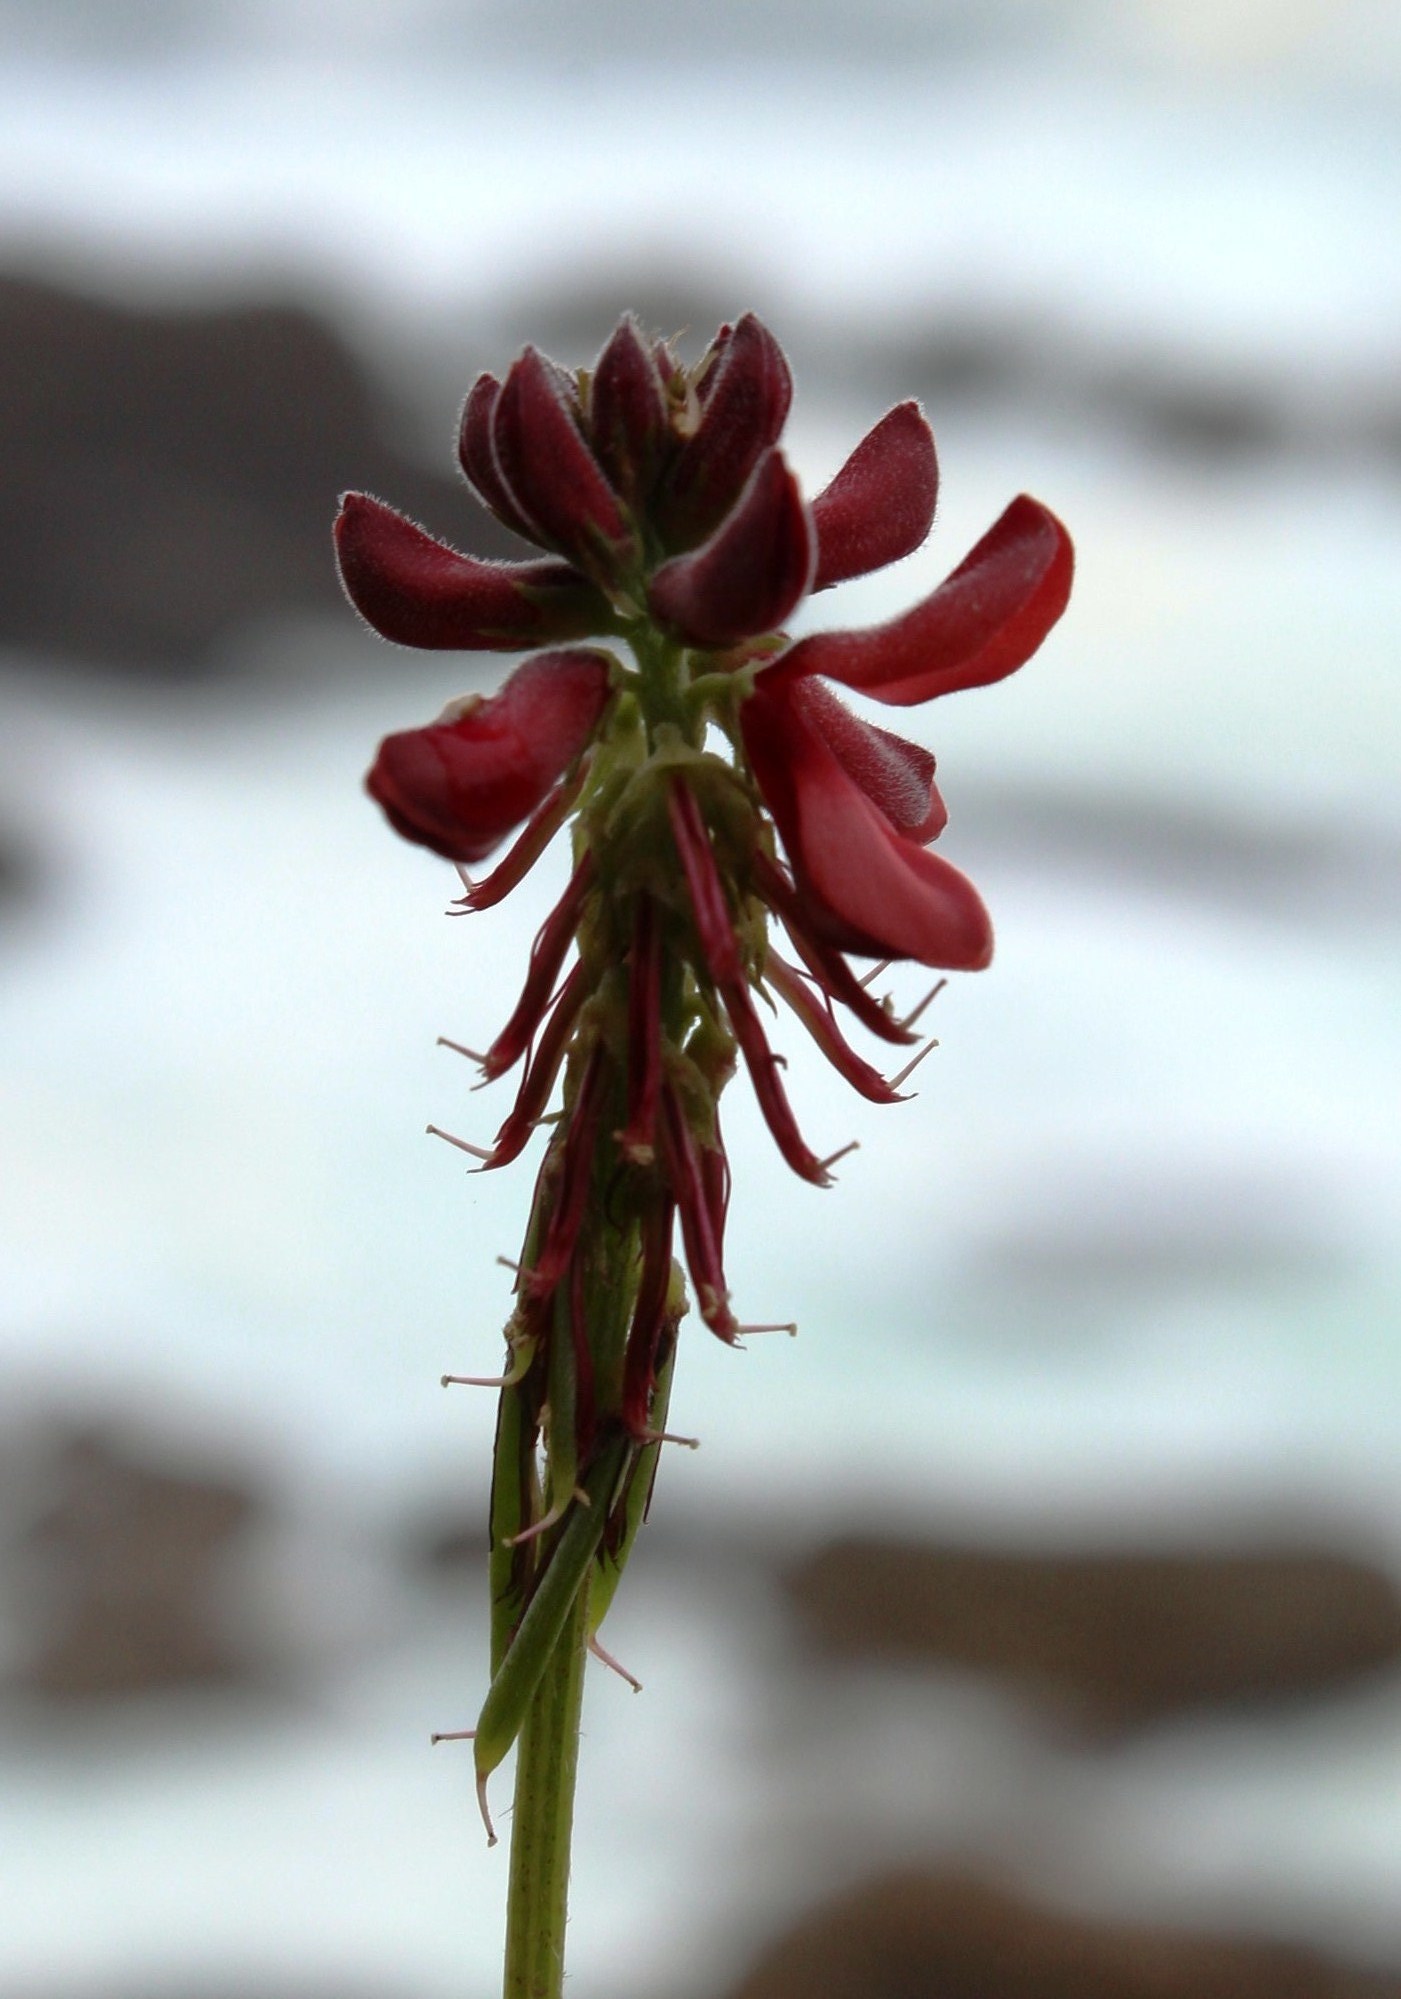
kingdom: Plantae
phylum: Tracheophyta
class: Magnoliopsida
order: Fabales
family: Fabaceae
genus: Indigofera
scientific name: Indigofera porrecta
